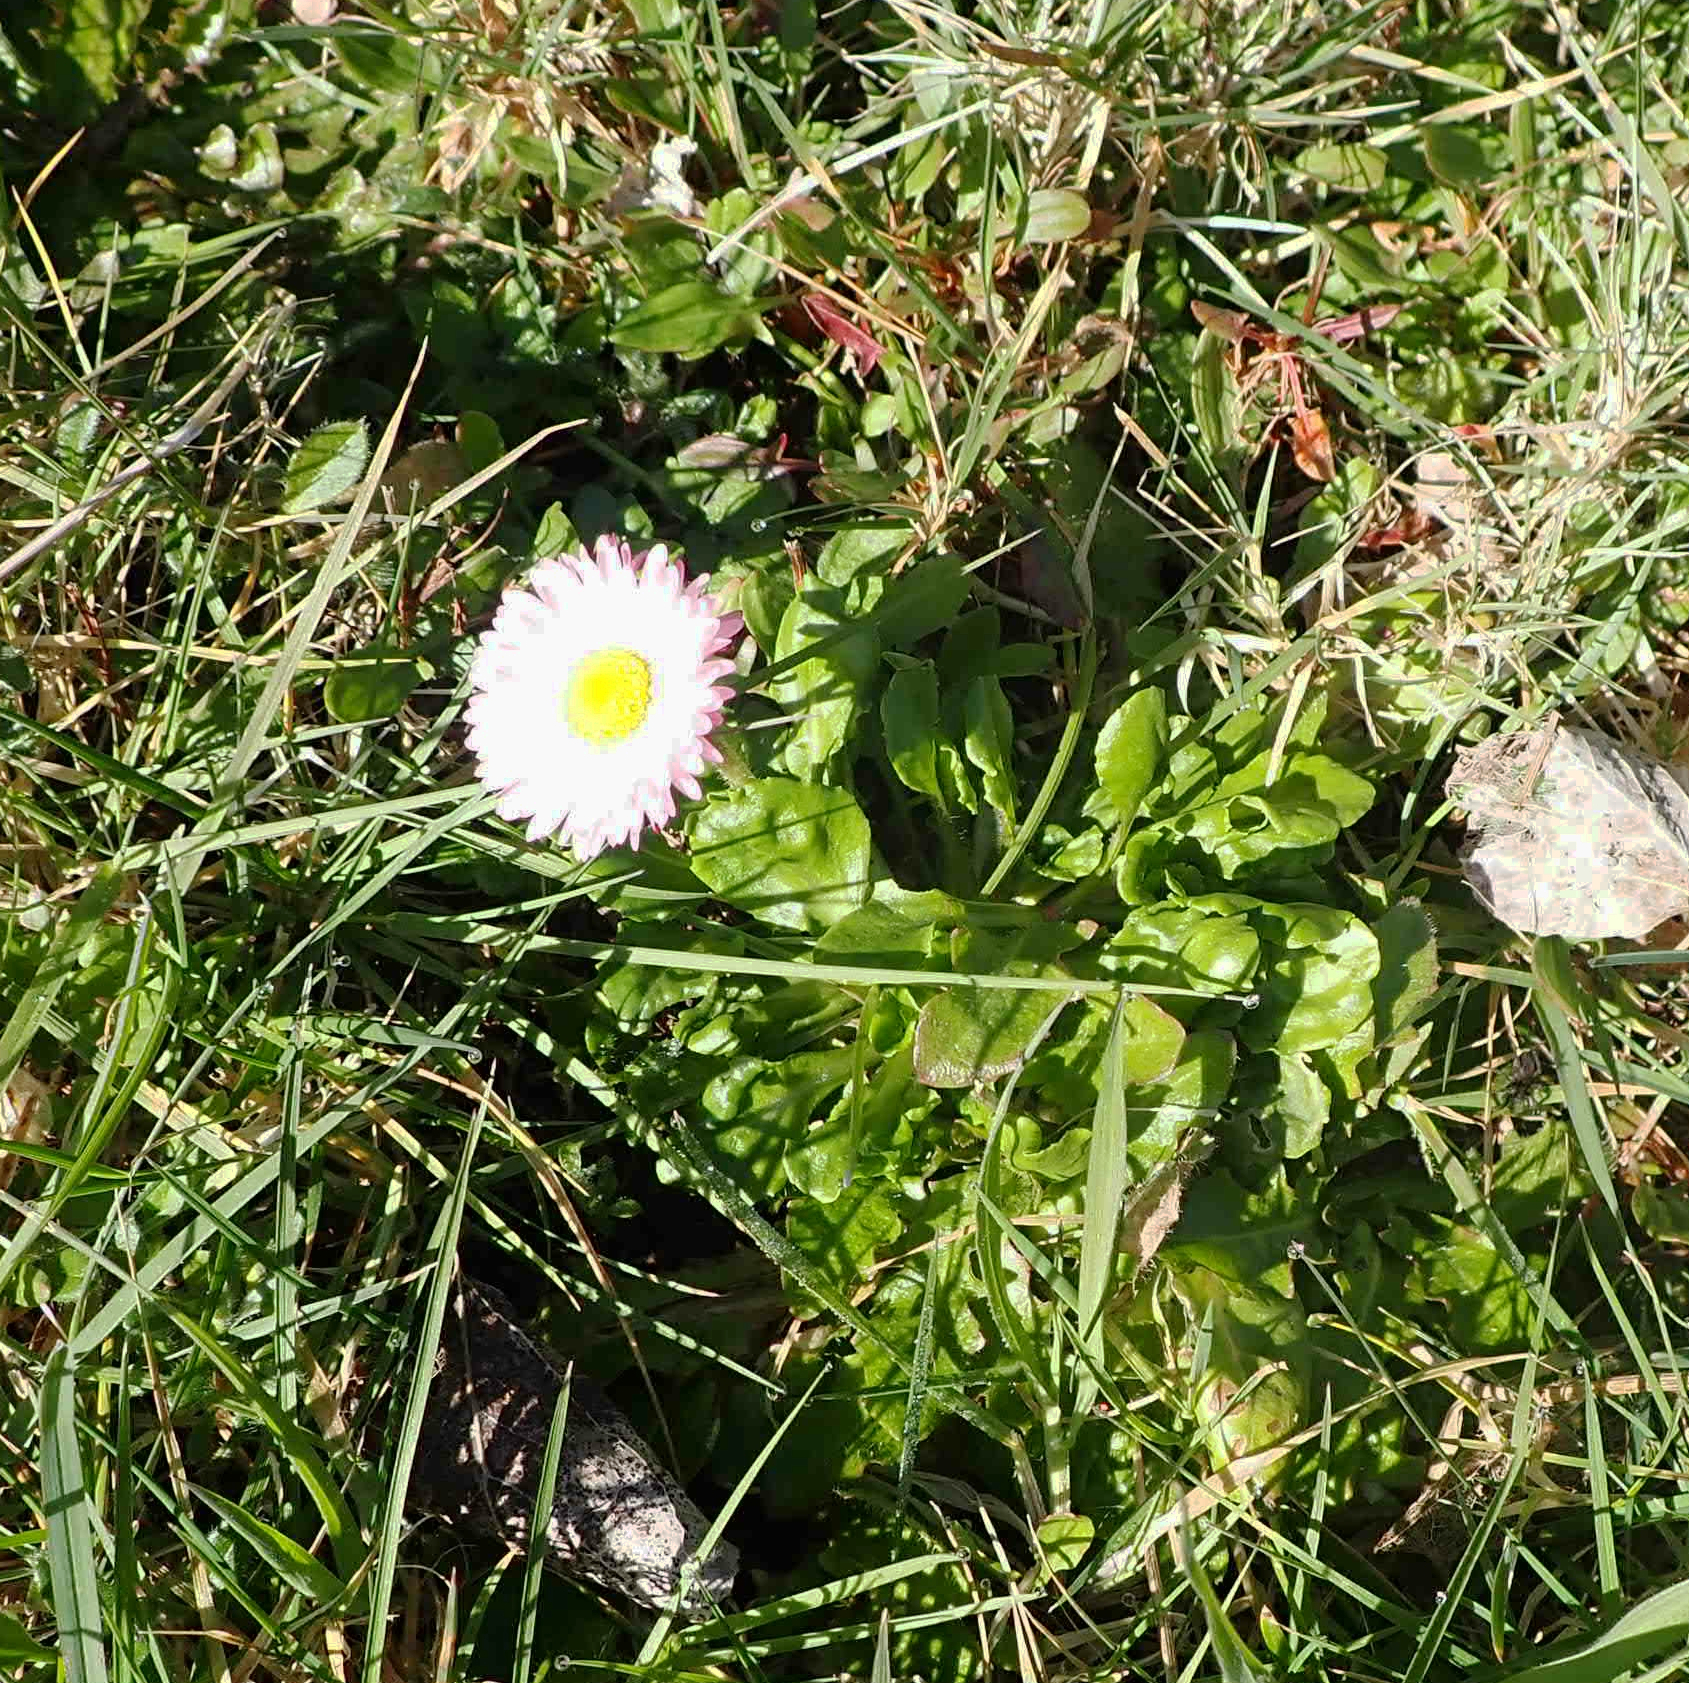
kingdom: Plantae
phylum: Tracheophyta
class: Magnoliopsida
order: Asterales
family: Asteraceae
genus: Bellis
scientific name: Bellis perennis
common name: Lawndaisy
